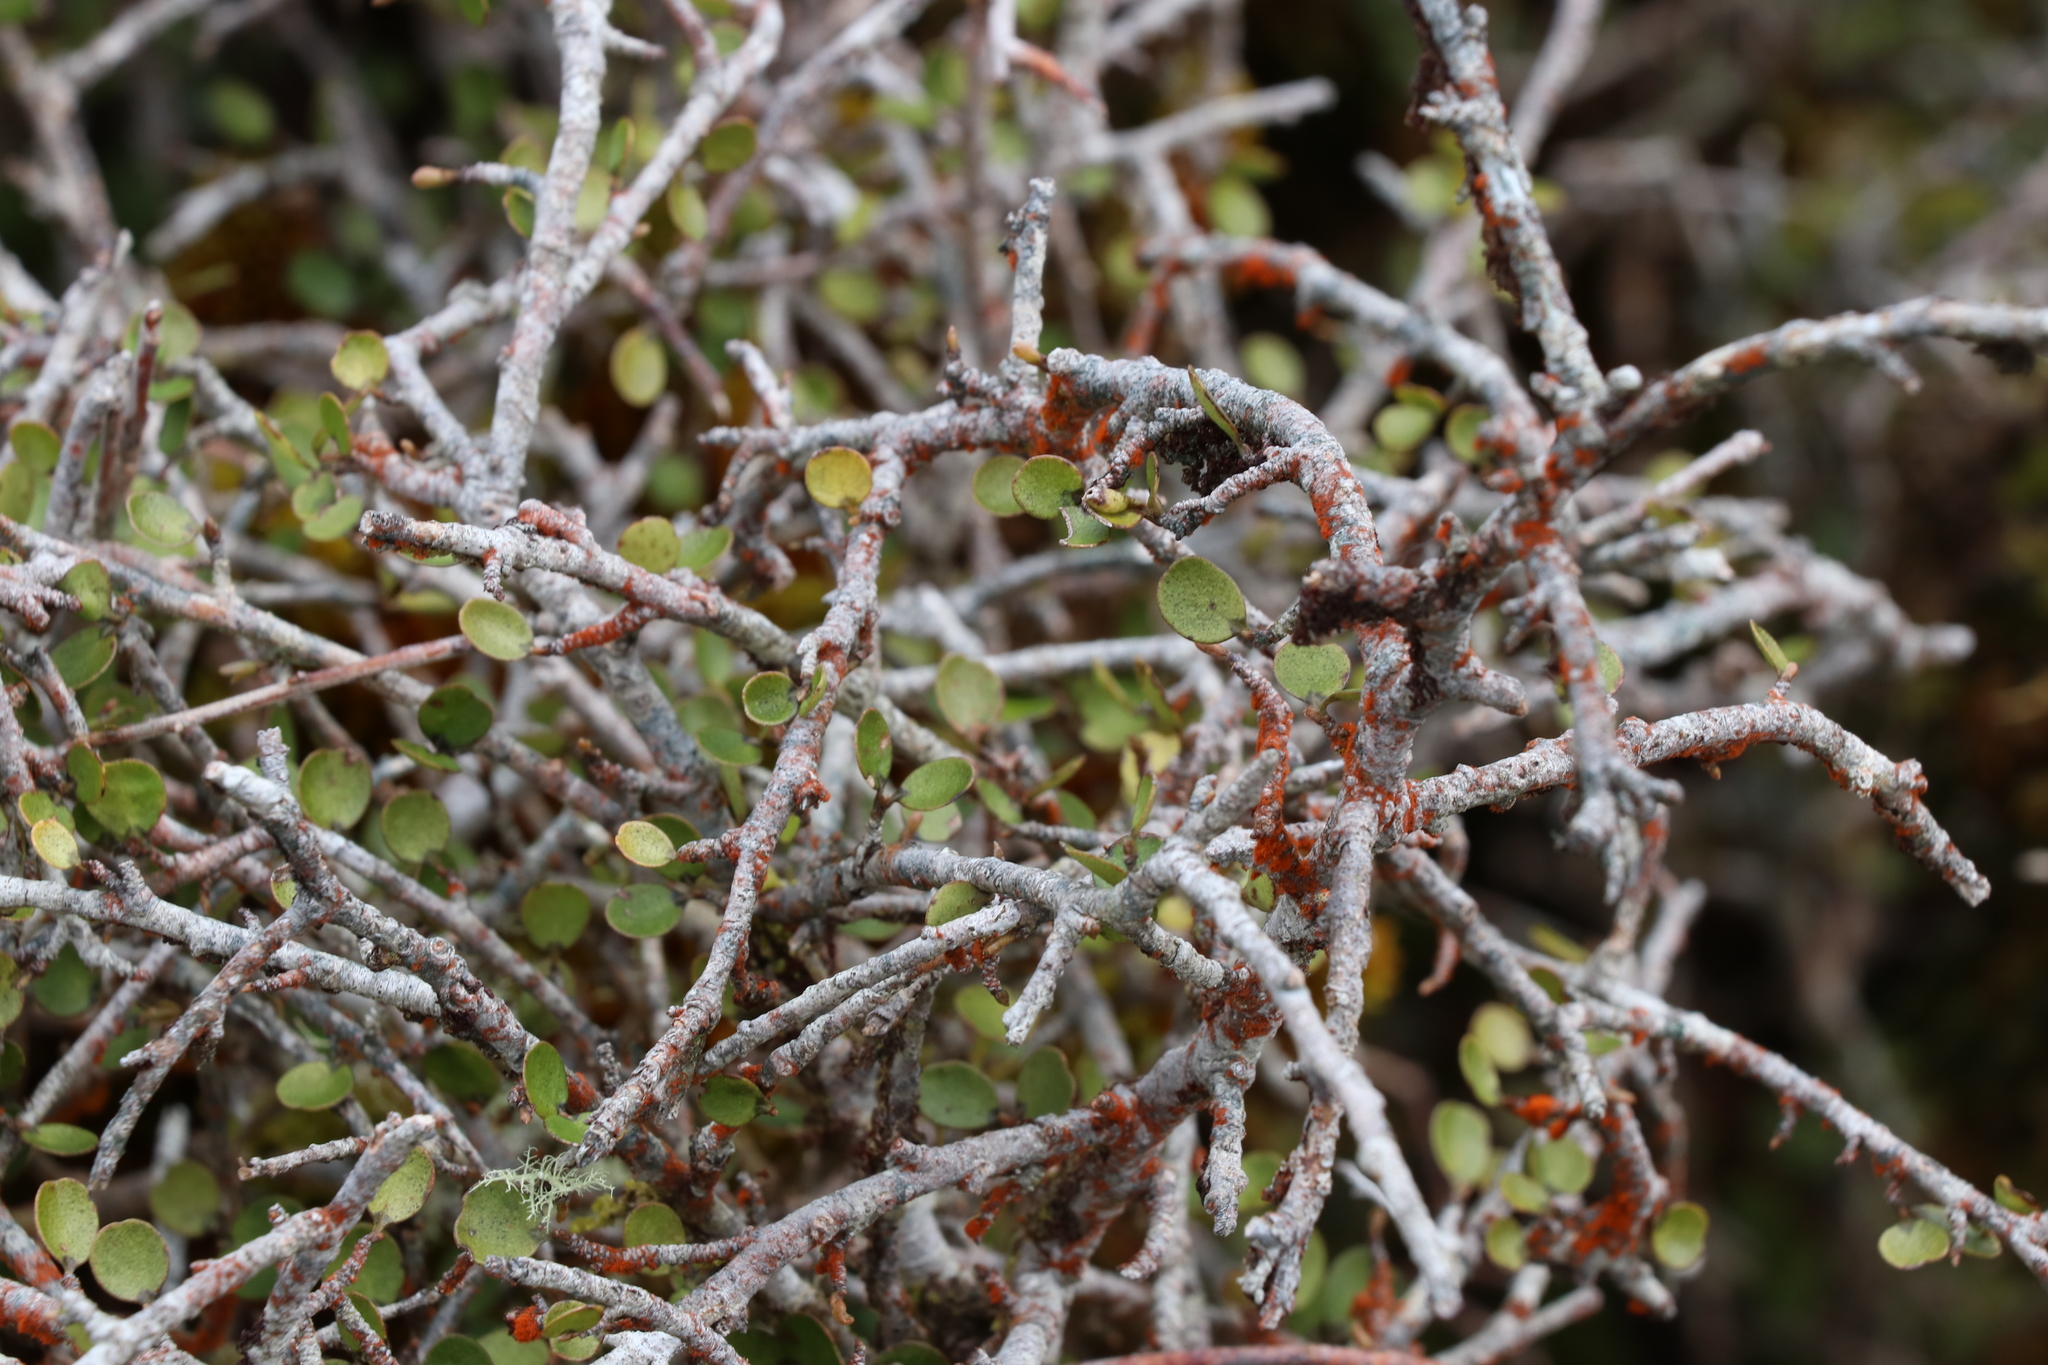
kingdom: Plantae
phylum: Tracheophyta
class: Magnoliopsida
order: Ericales
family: Primulaceae
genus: Myrsine
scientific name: Myrsine divaricata
